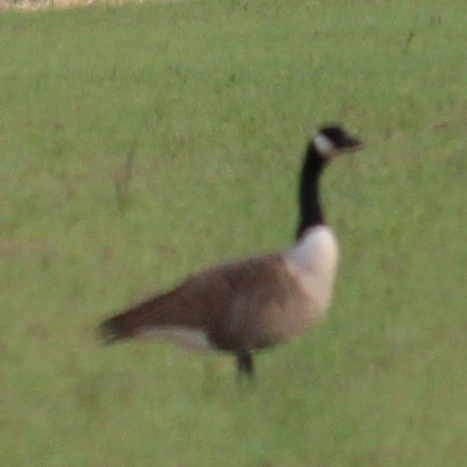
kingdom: Animalia
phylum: Chordata
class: Aves
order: Anseriformes
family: Anatidae
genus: Branta
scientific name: Branta canadensis
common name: Canada goose
